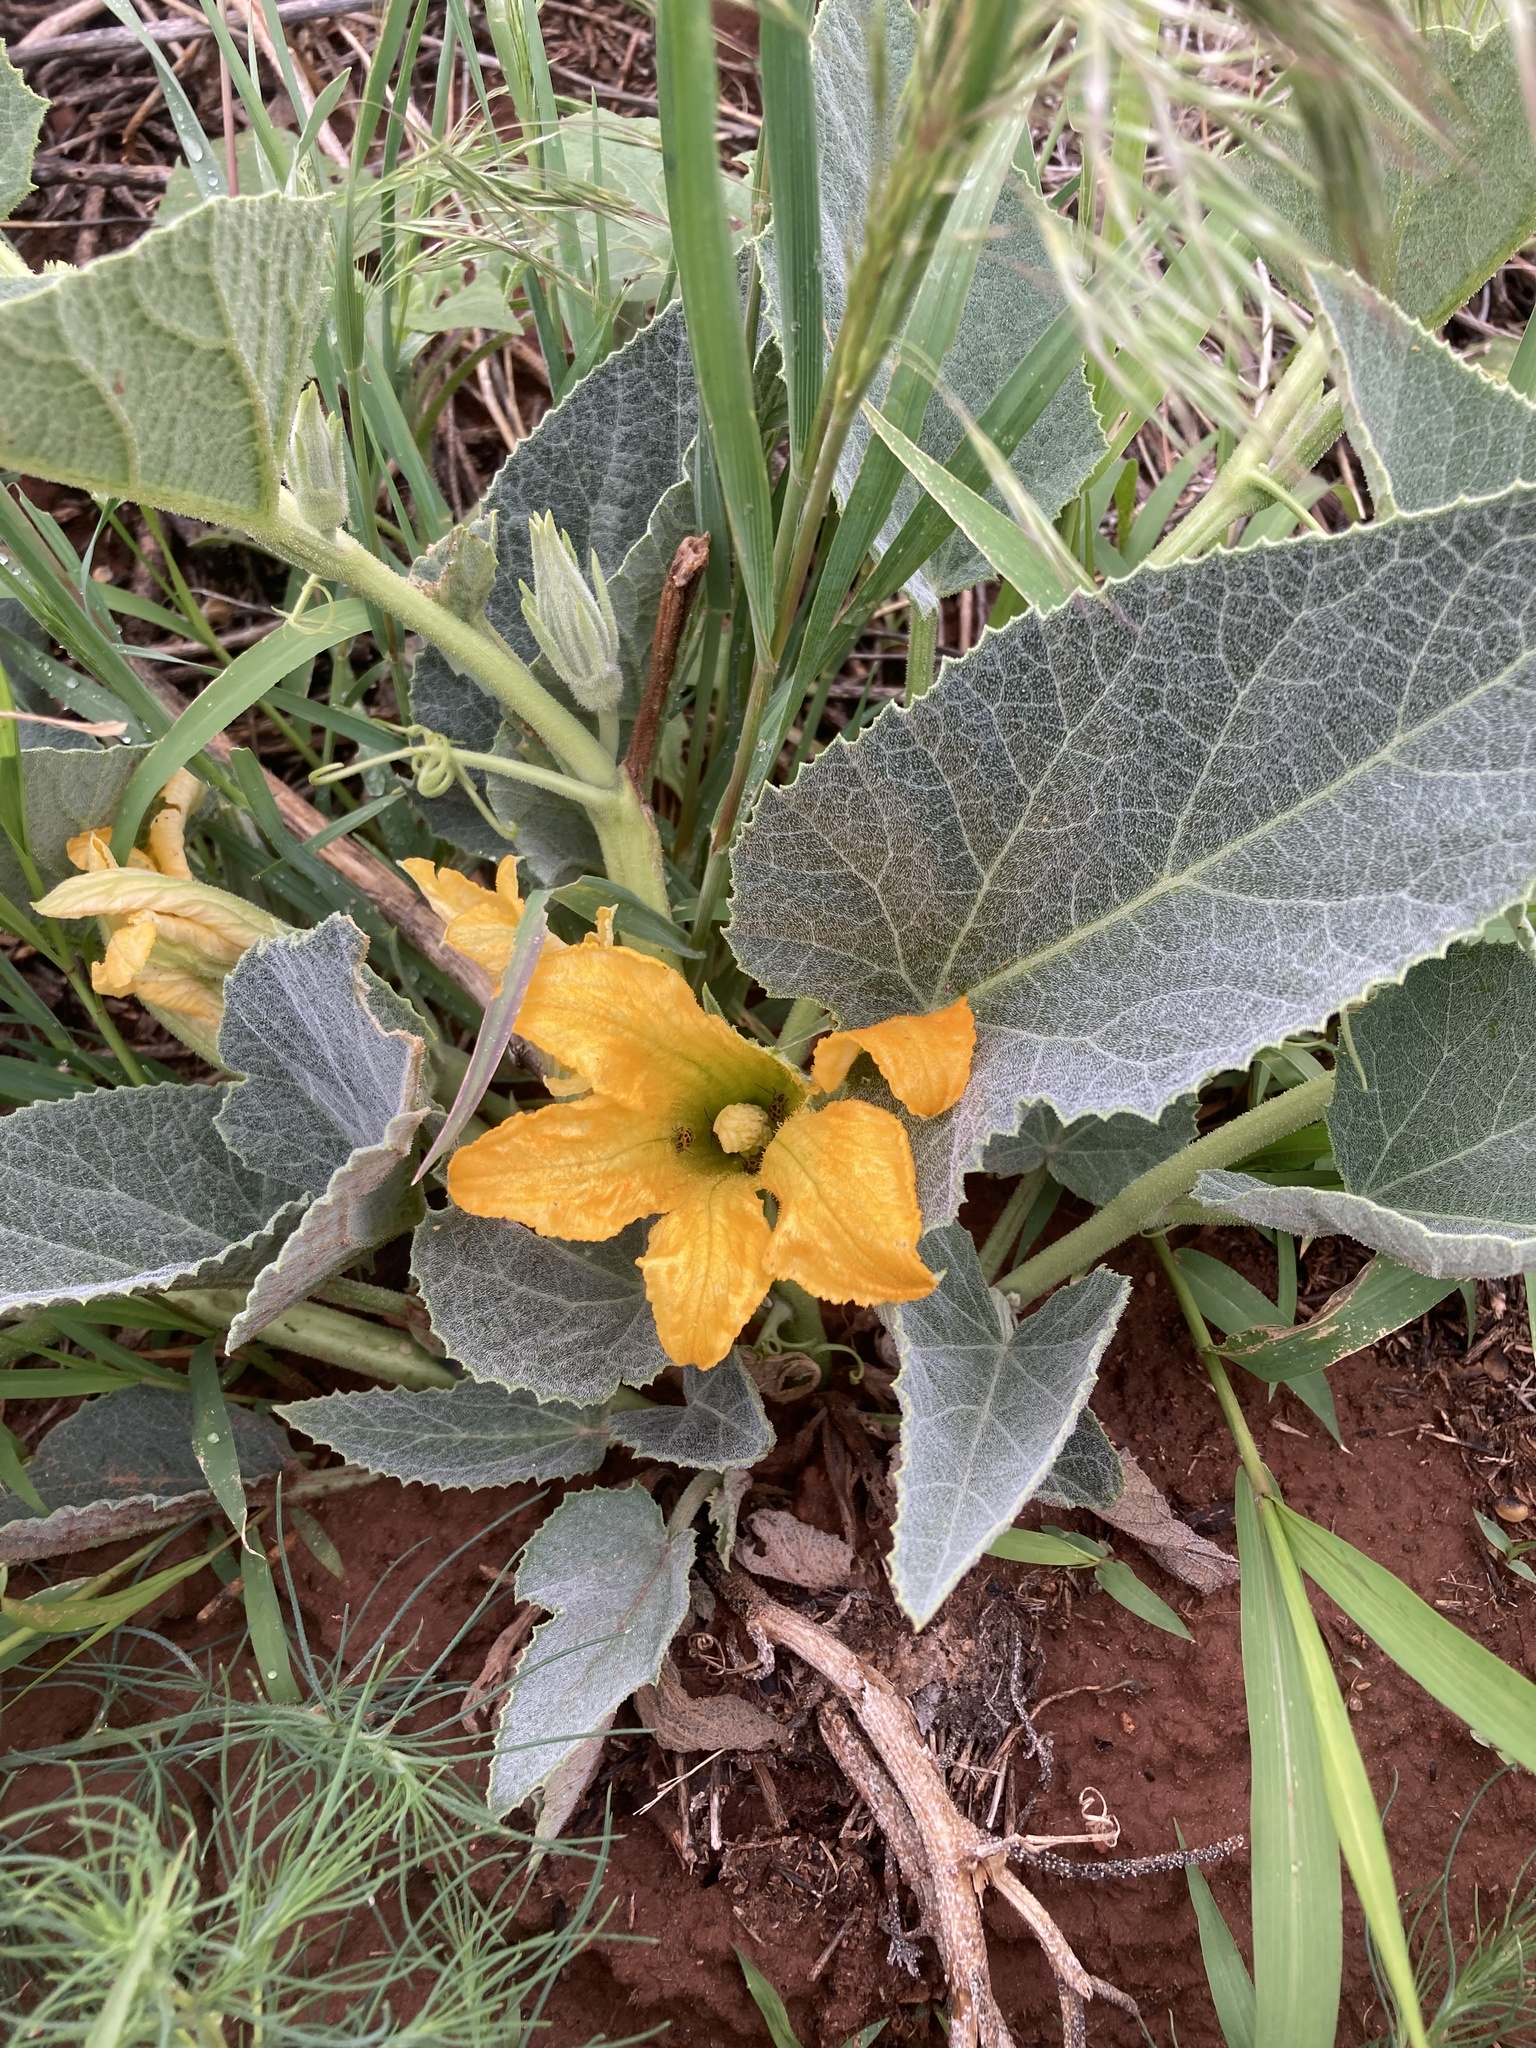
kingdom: Plantae
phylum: Tracheophyta
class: Magnoliopsida
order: Cucurbitales
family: Cucurbitaceae
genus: Cucurbita
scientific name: Cucurbita foetidissima
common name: Buffalo gourd
